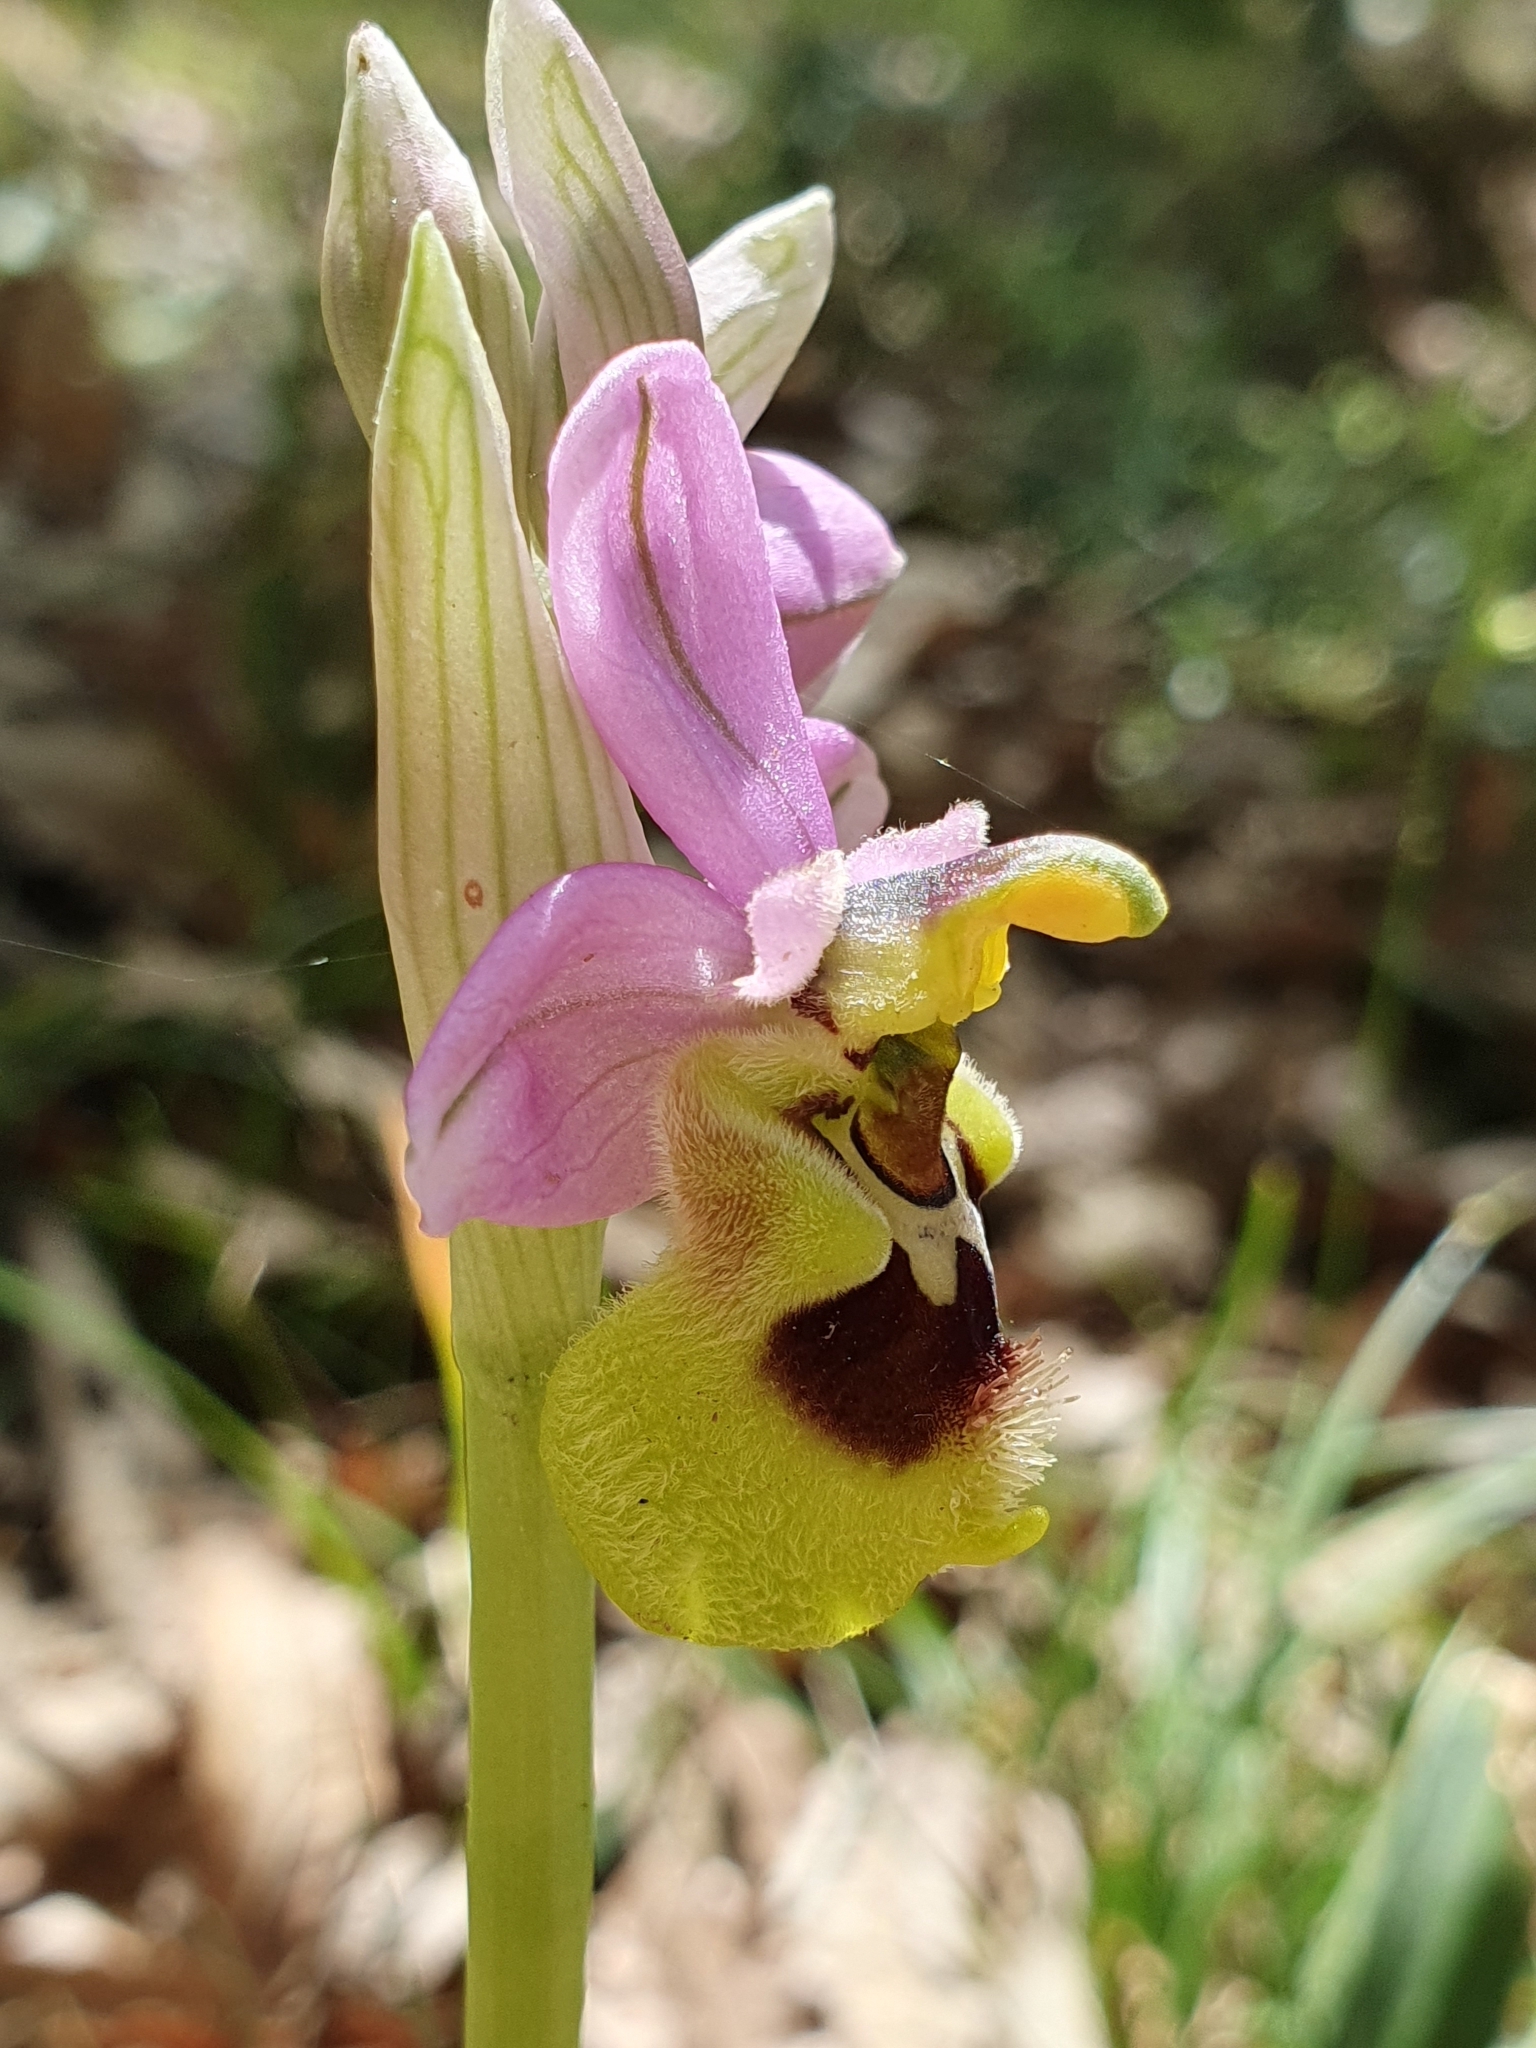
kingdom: Plantae
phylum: Tracheophyta
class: Liliopsida
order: Asparagales
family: Orchidaceae
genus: Ophrys
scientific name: Ophrys tenthredinifera
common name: Sawfly orchid
